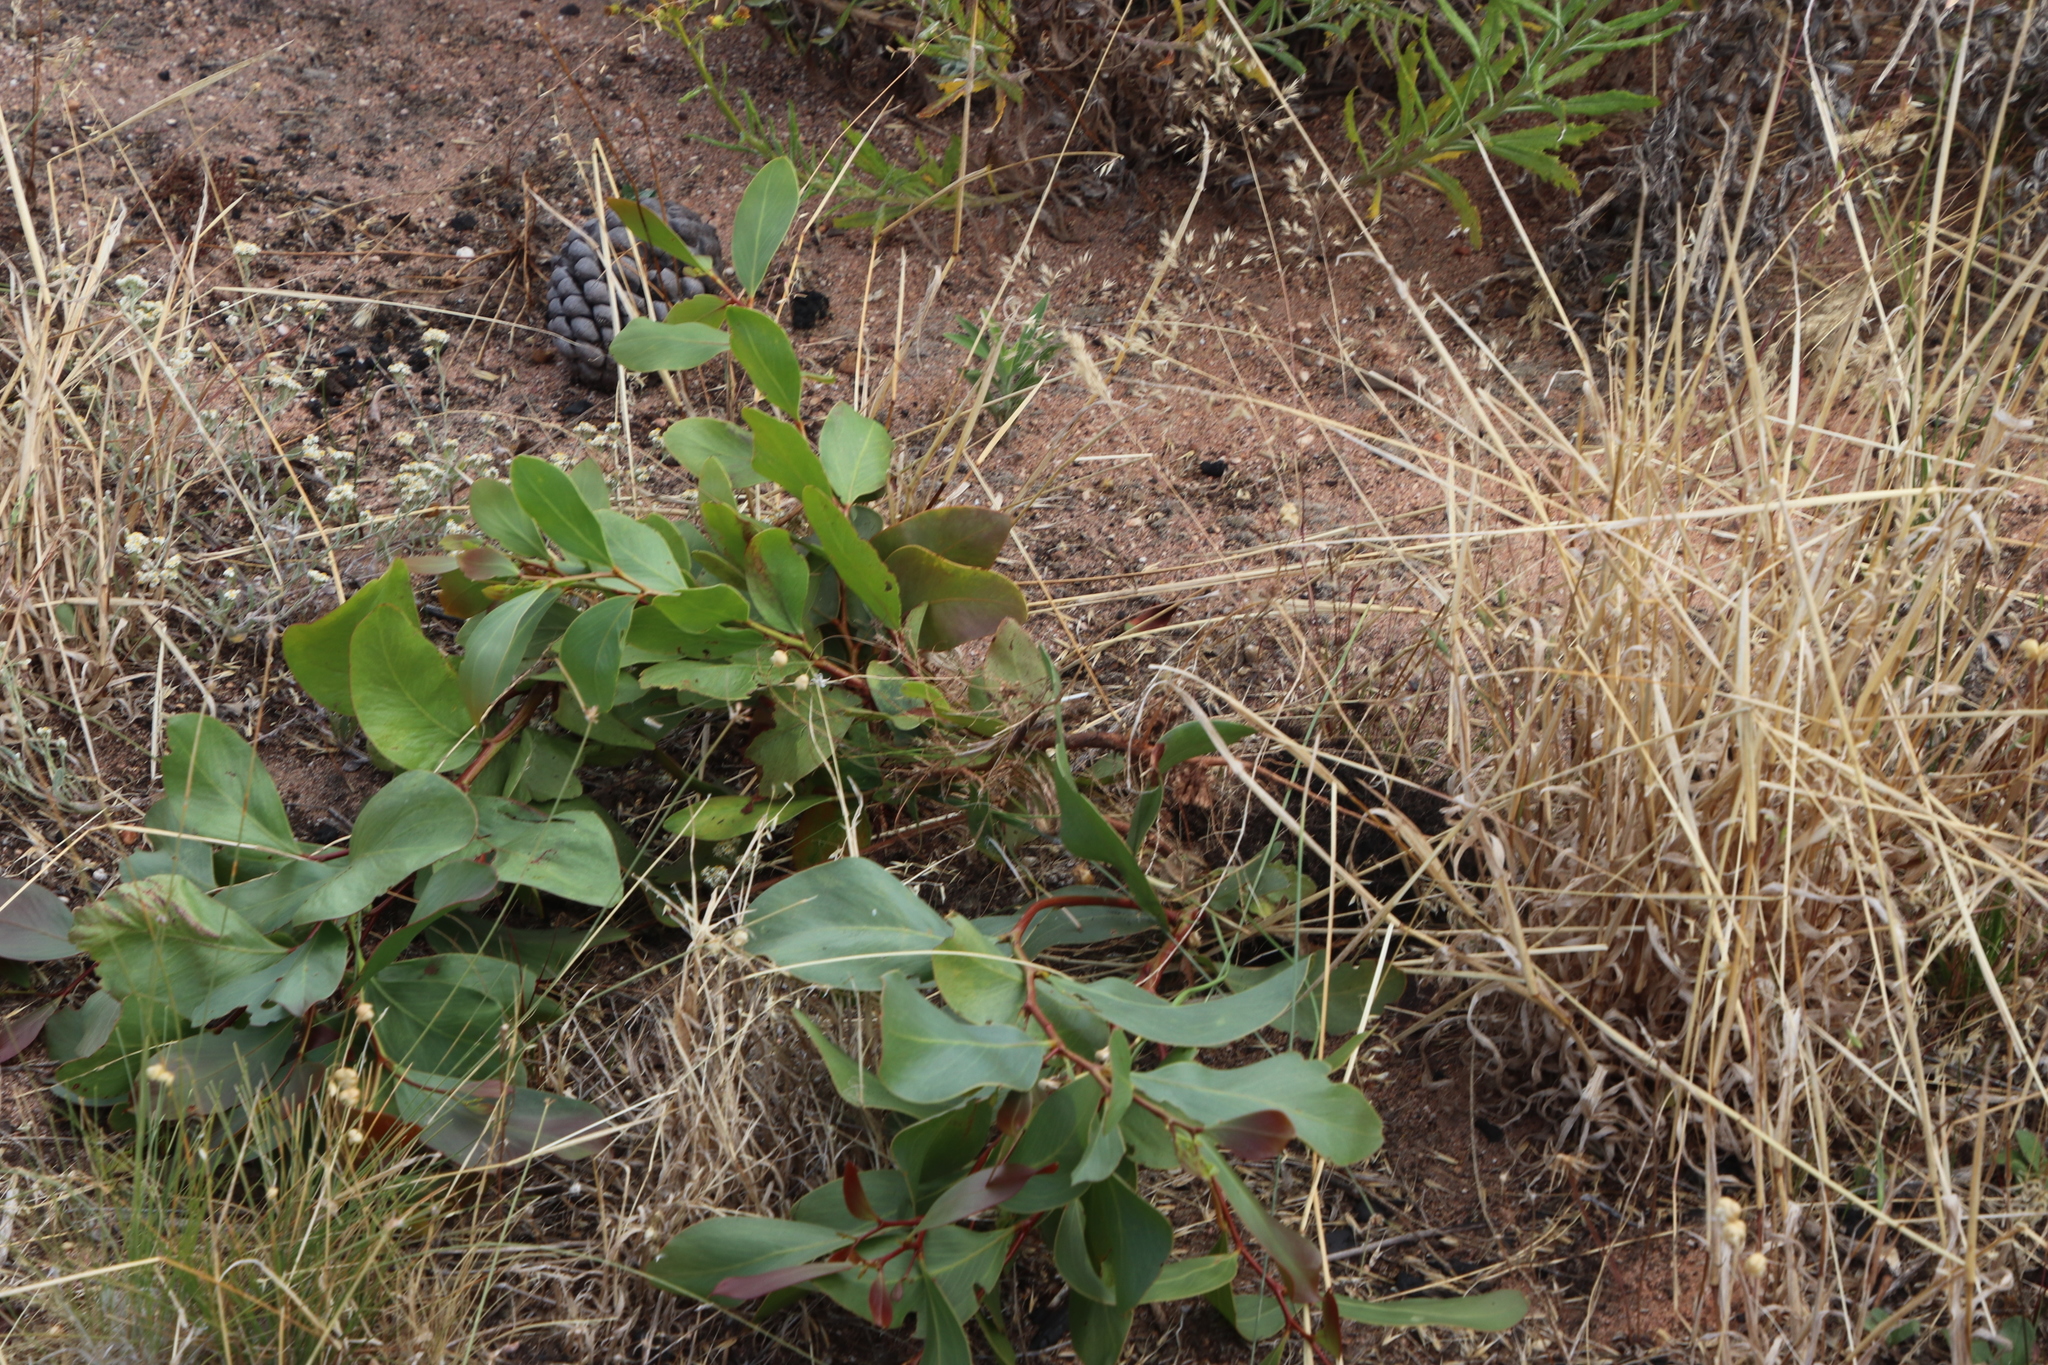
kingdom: Plantae
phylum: Tracheophyta
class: Magnoliopsida
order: Fabales
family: Fabaceae
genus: Acacia
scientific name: Acacia pycnantha
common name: Golden wattle
